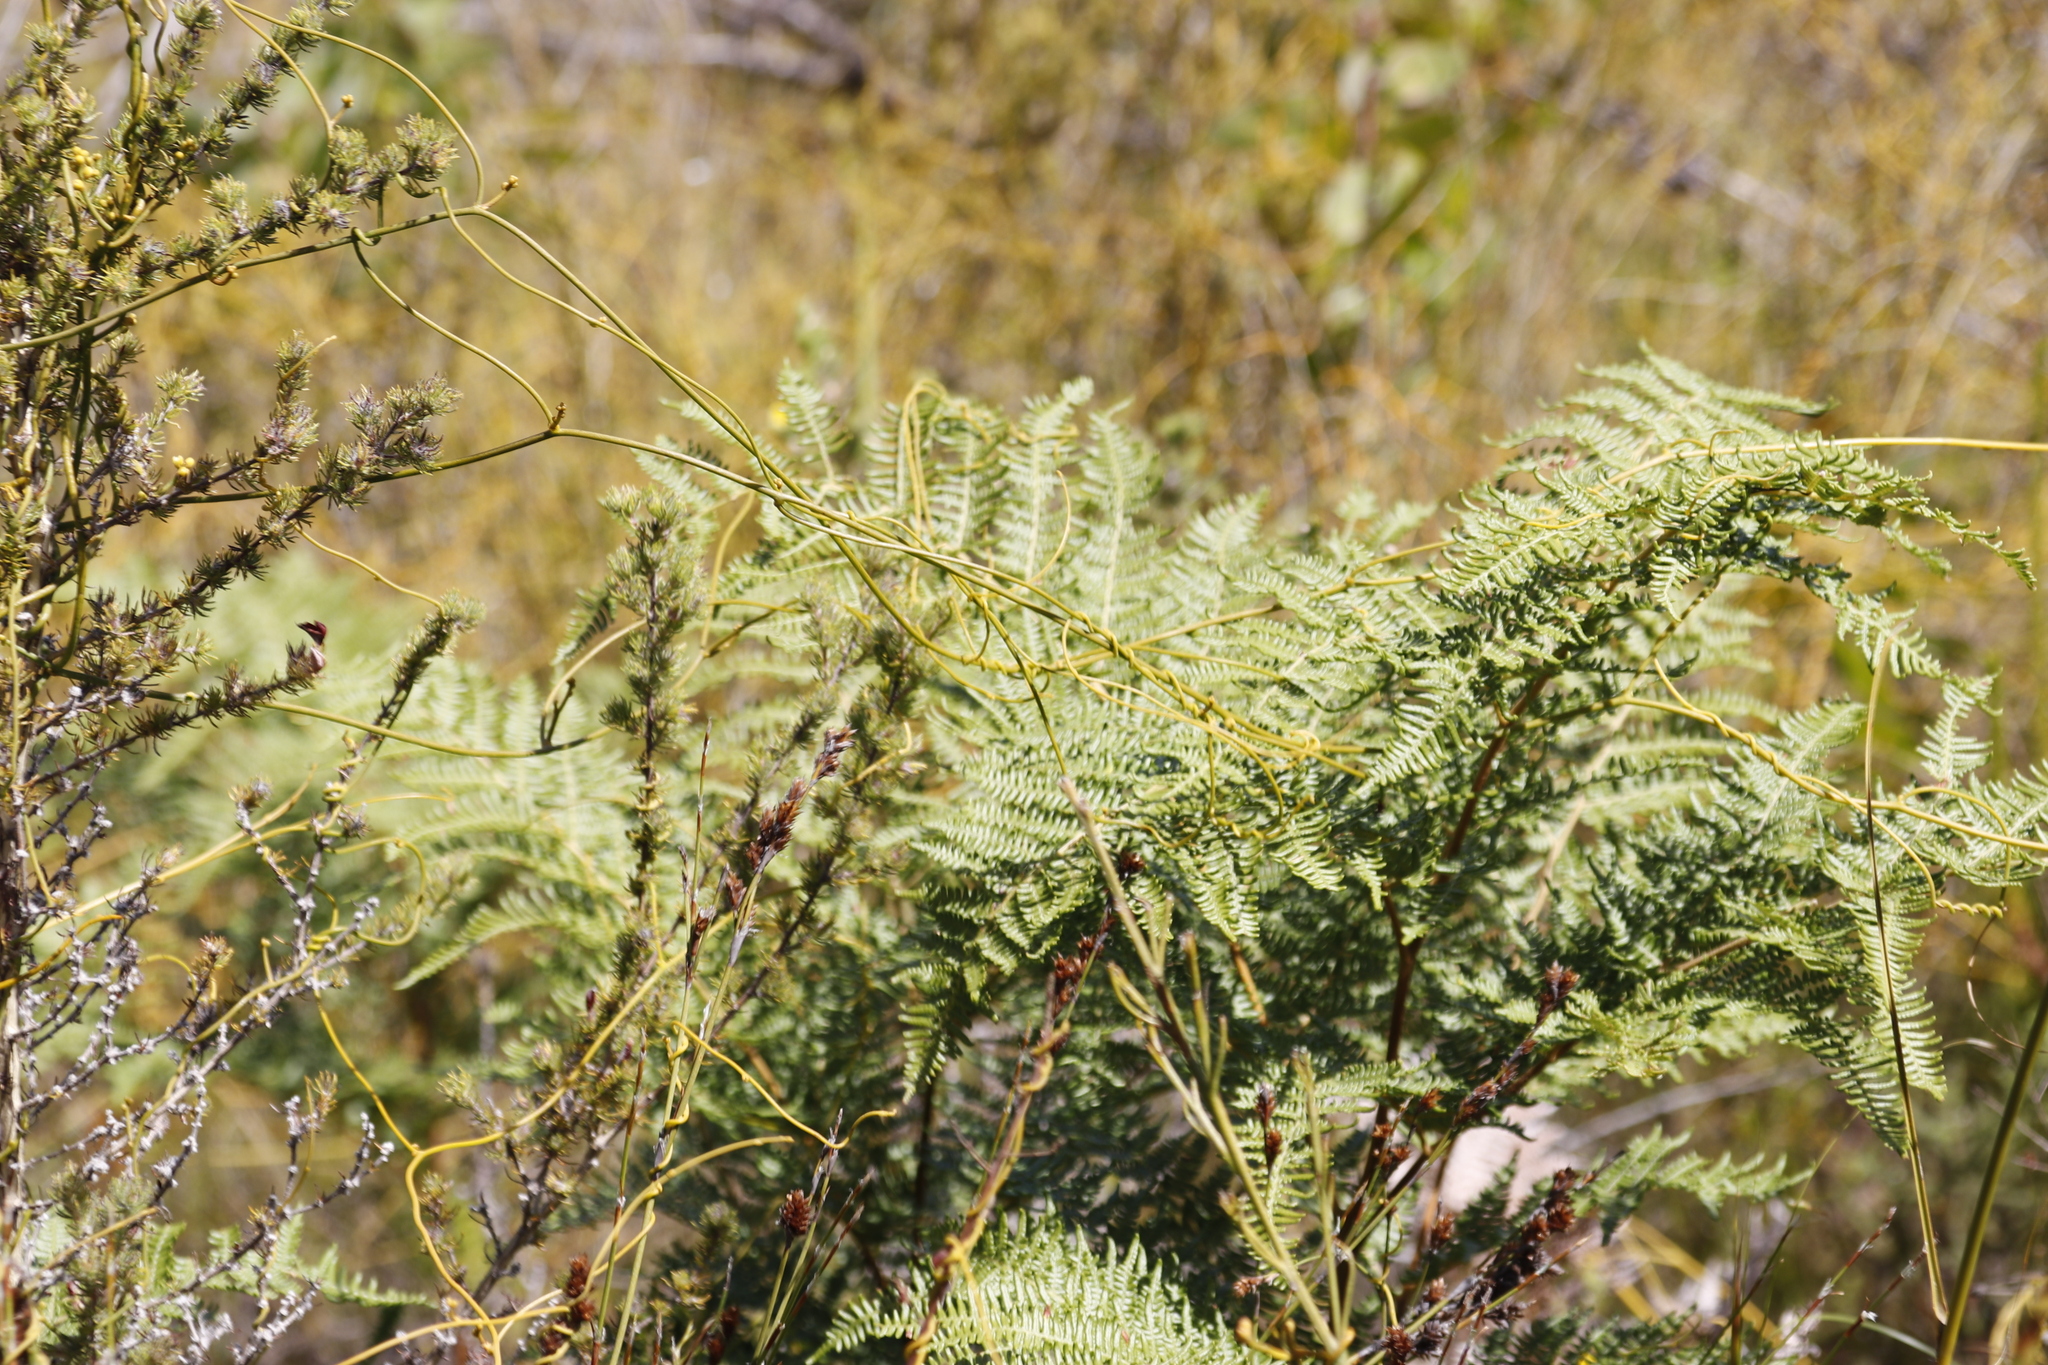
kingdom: Plantae
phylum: Tracheophyta
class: Polypodiopsida
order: Polypodiales
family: Dennstaedtiaceae
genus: Pteridium
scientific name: Pteridium aquilinum
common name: Bracken
